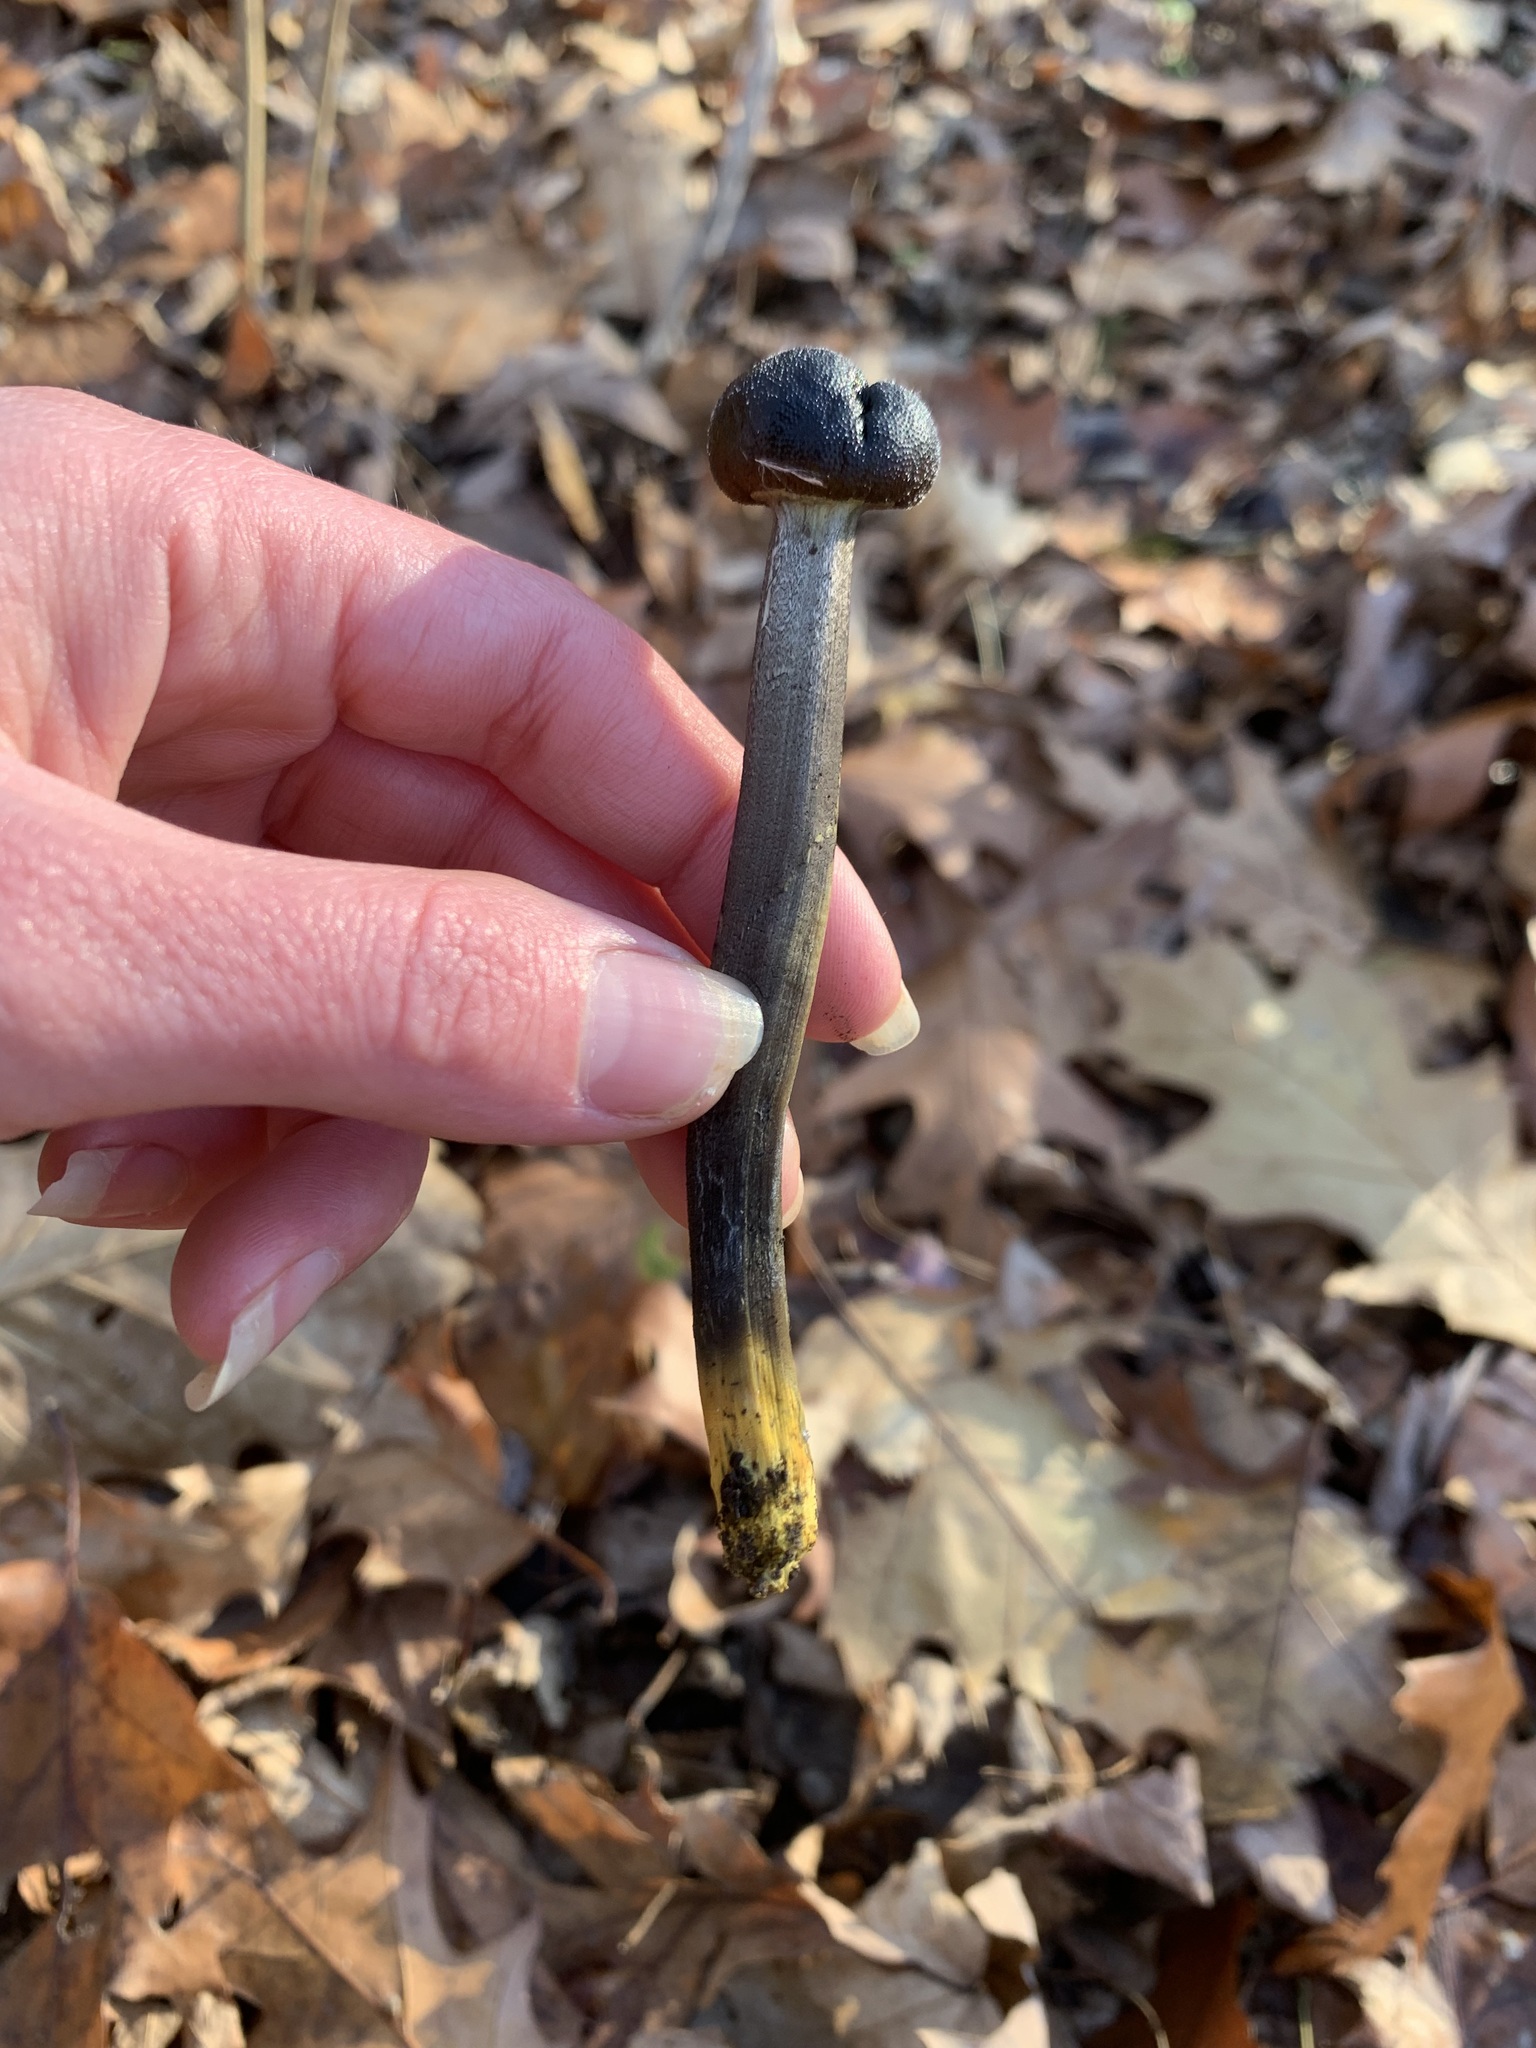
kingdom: Fungi
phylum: Ascomycota
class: Sordariomycetes
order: Hypocreales
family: Ophiocordycipitaceae
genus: Tolypocladium
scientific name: Tolypocladium longisegmentatum
